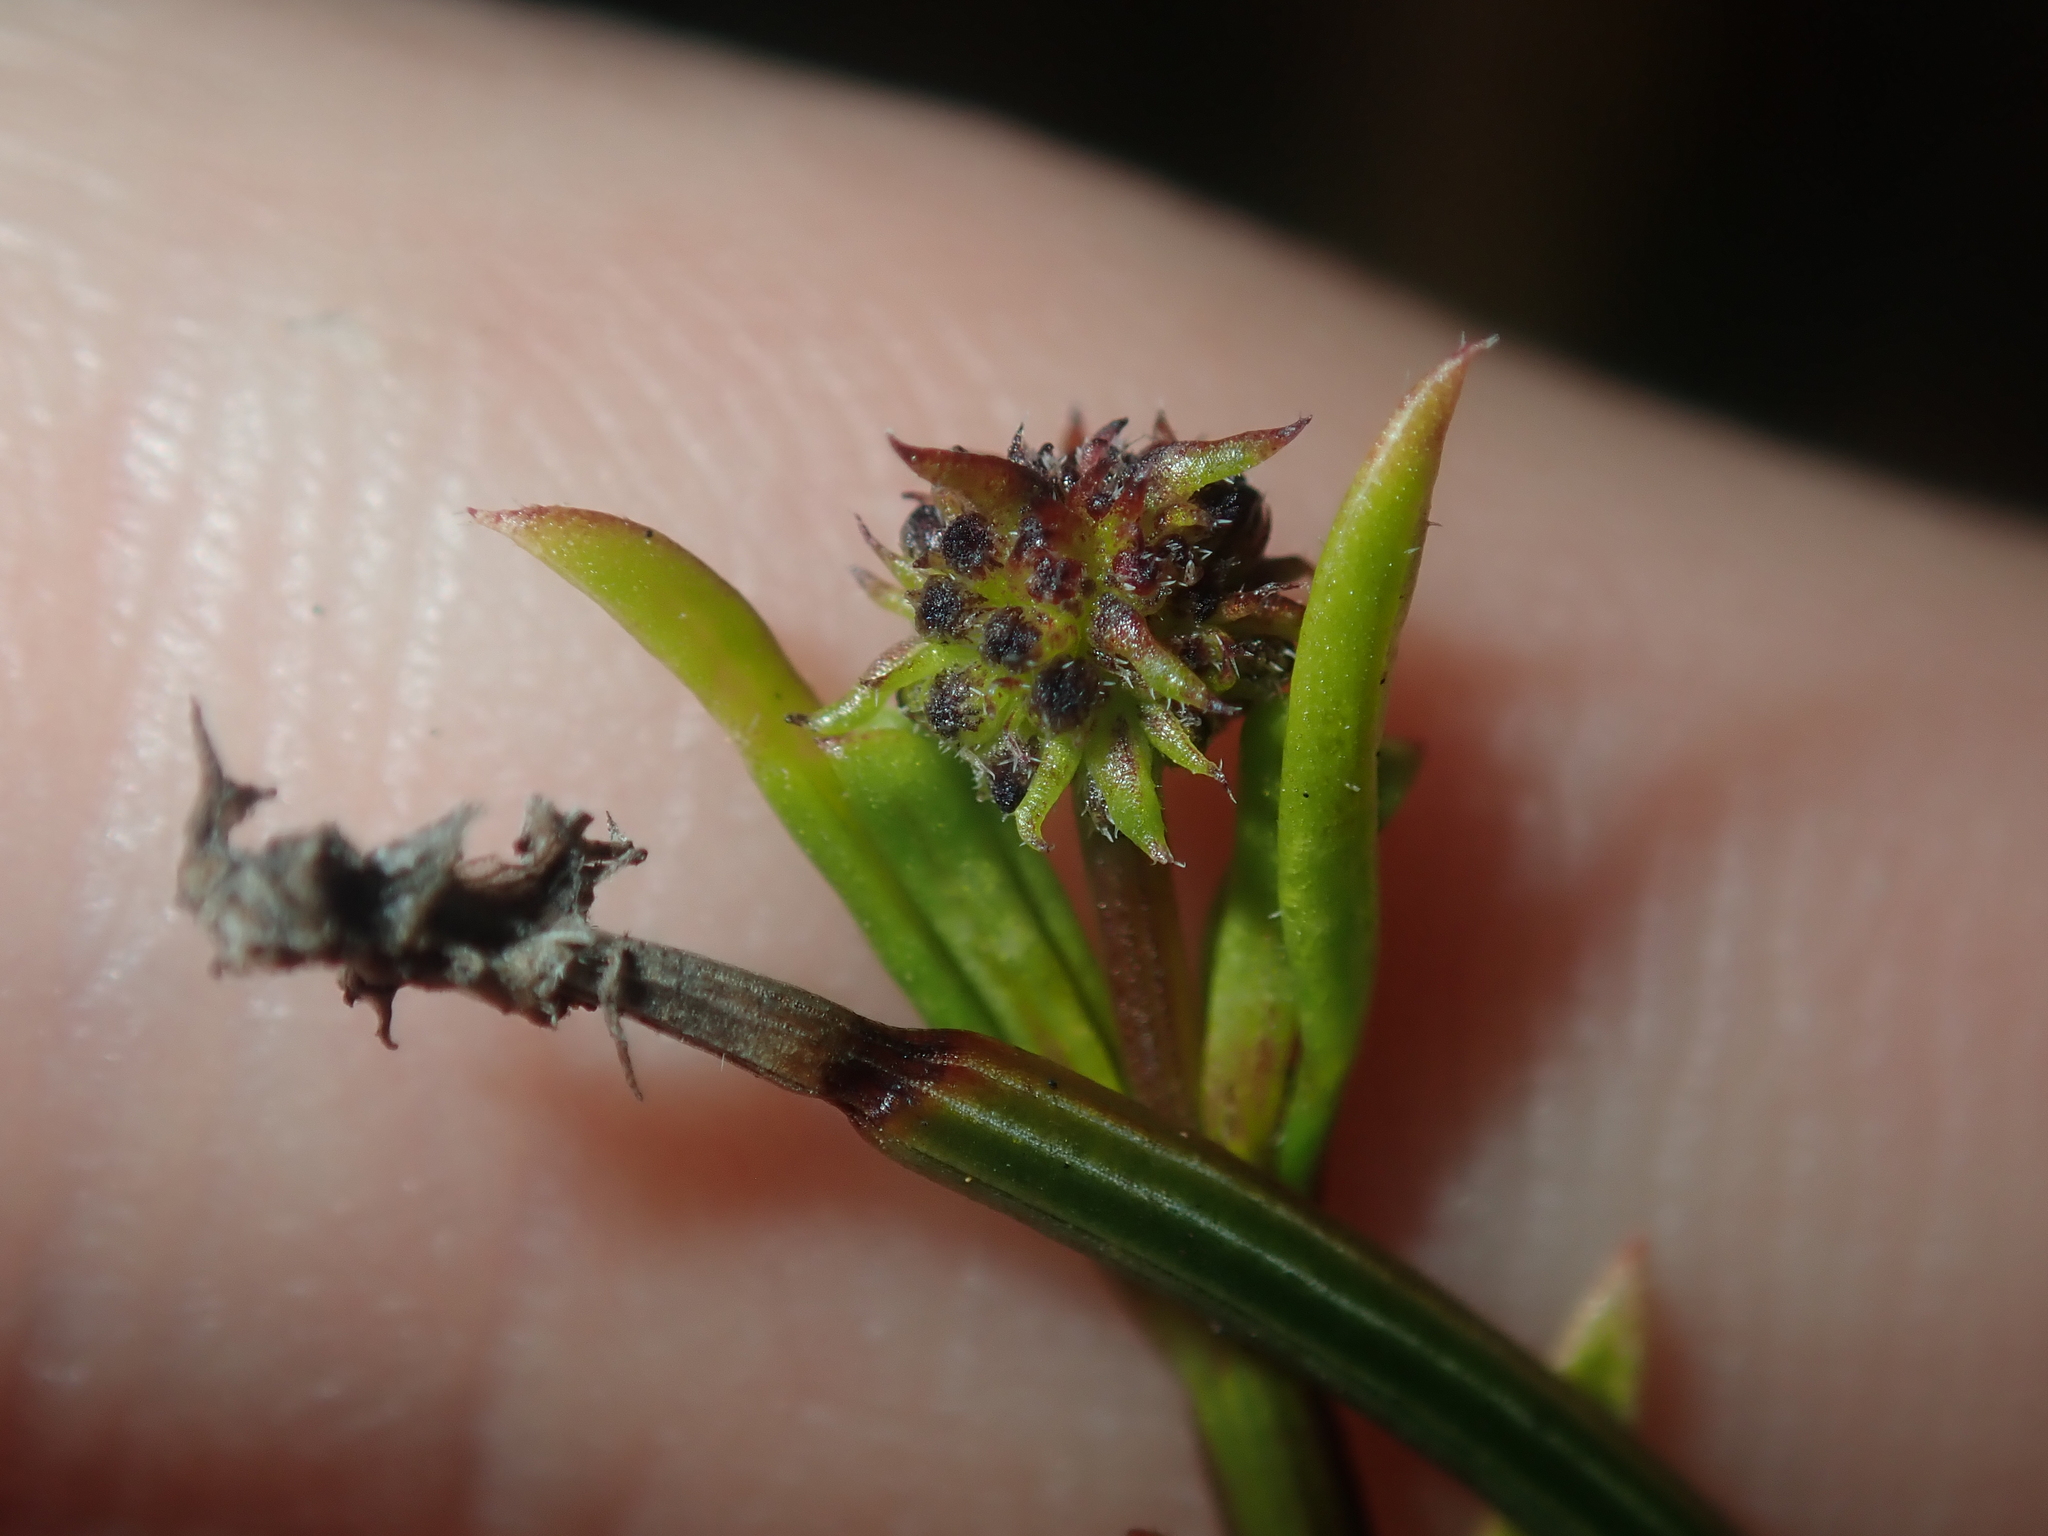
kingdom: Plantae
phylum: Tracheophyta
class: Magnoliopsida
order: Gentianales
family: Rubiaceae
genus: Opercularia
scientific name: Opercularia vaginata
